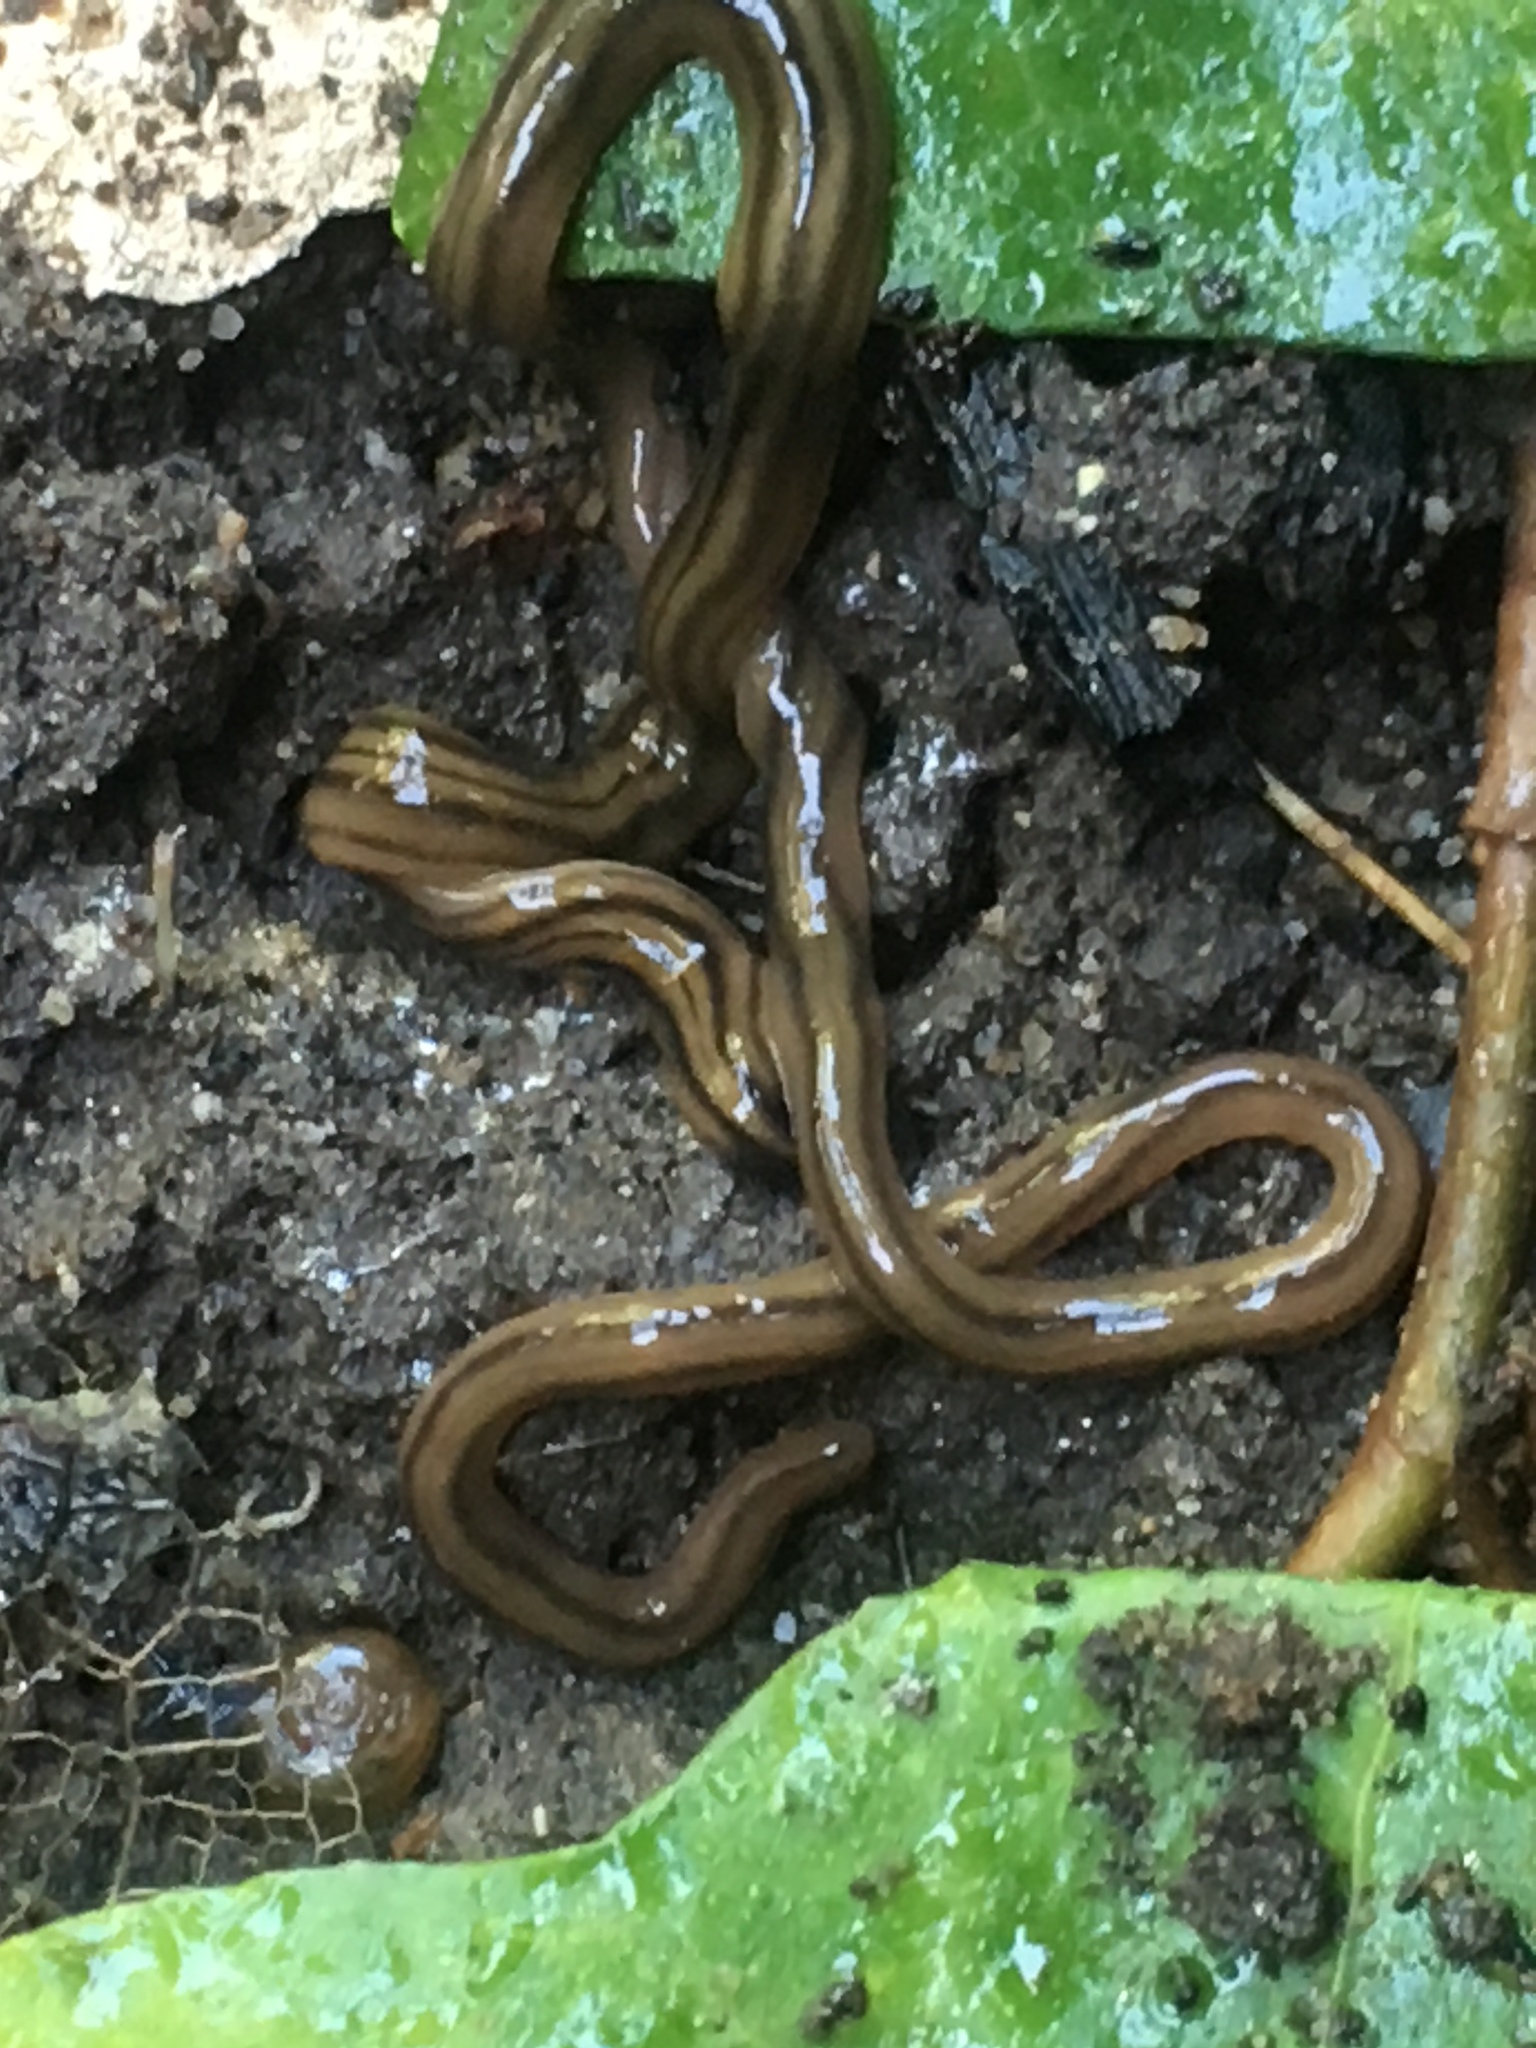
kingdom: Animalia
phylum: Platyhelminthes
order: Tricladida
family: Geoplanidae
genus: Bipalium
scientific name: Bipalium kewense
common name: Hammerhead flatworm
